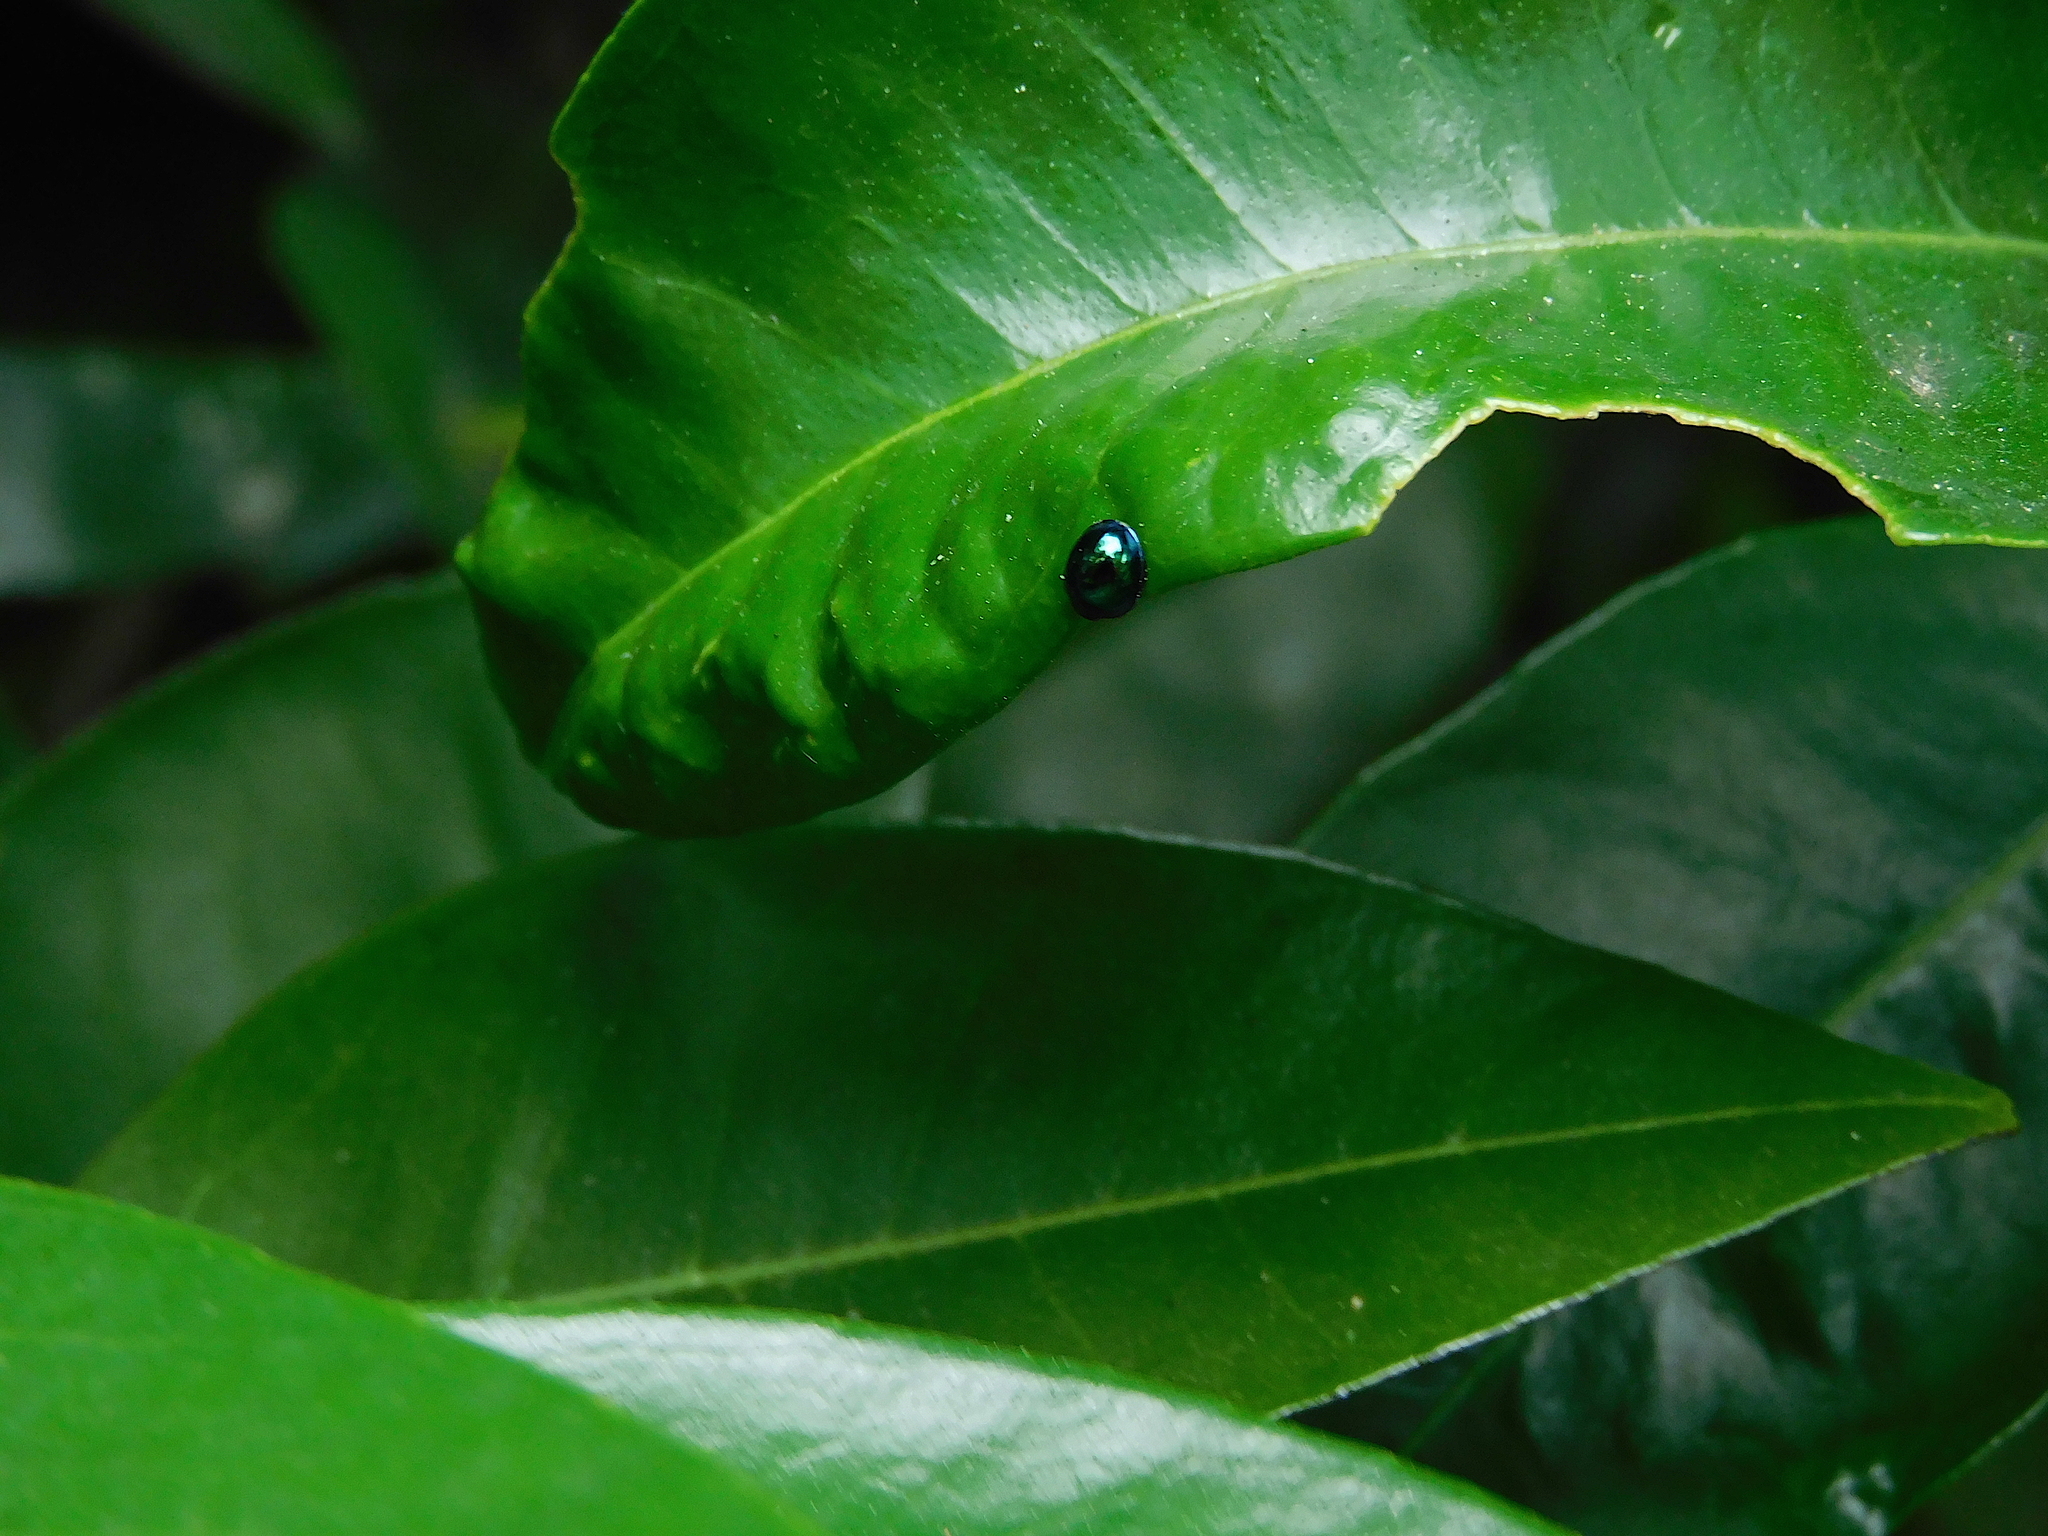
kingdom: Animalia
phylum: Arthropoda
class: Insecta
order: Coleoptera
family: Coccinellidae
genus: Halmus
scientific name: Halmus chalybeus
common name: Steel blue ladybird beetle
